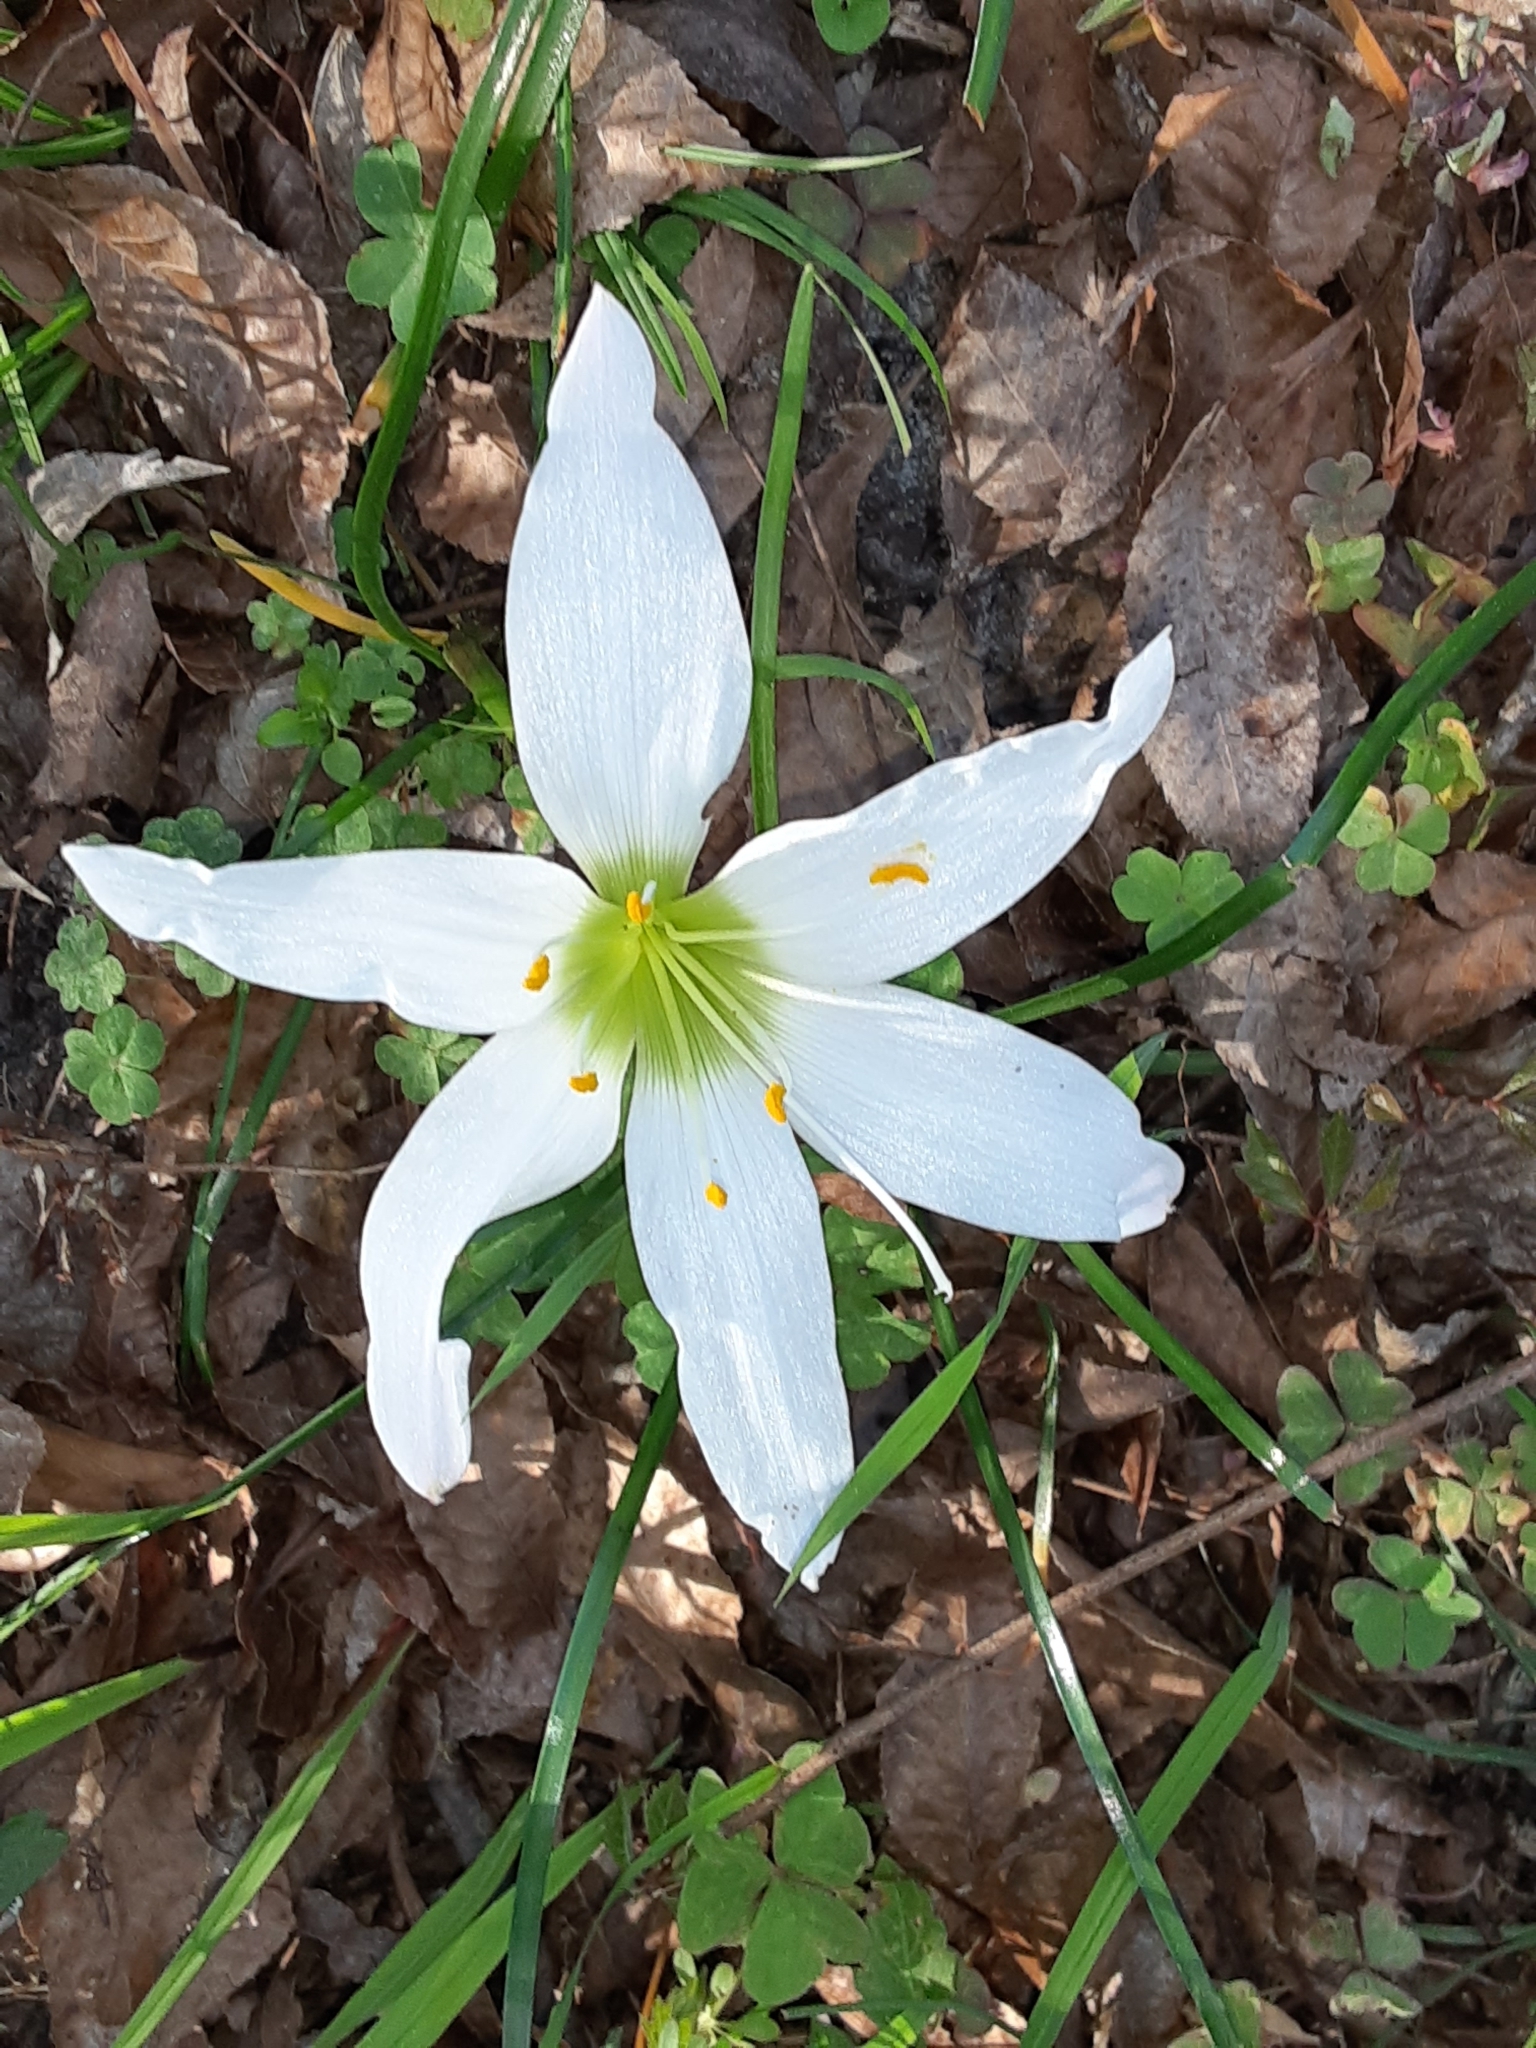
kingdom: Plantae
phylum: Tracheophyta
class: Liliopsida
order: Asparagales
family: Amaryllidaceae
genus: Zephyranthes
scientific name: Zephyranthes atamasco
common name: Atamasco lily
